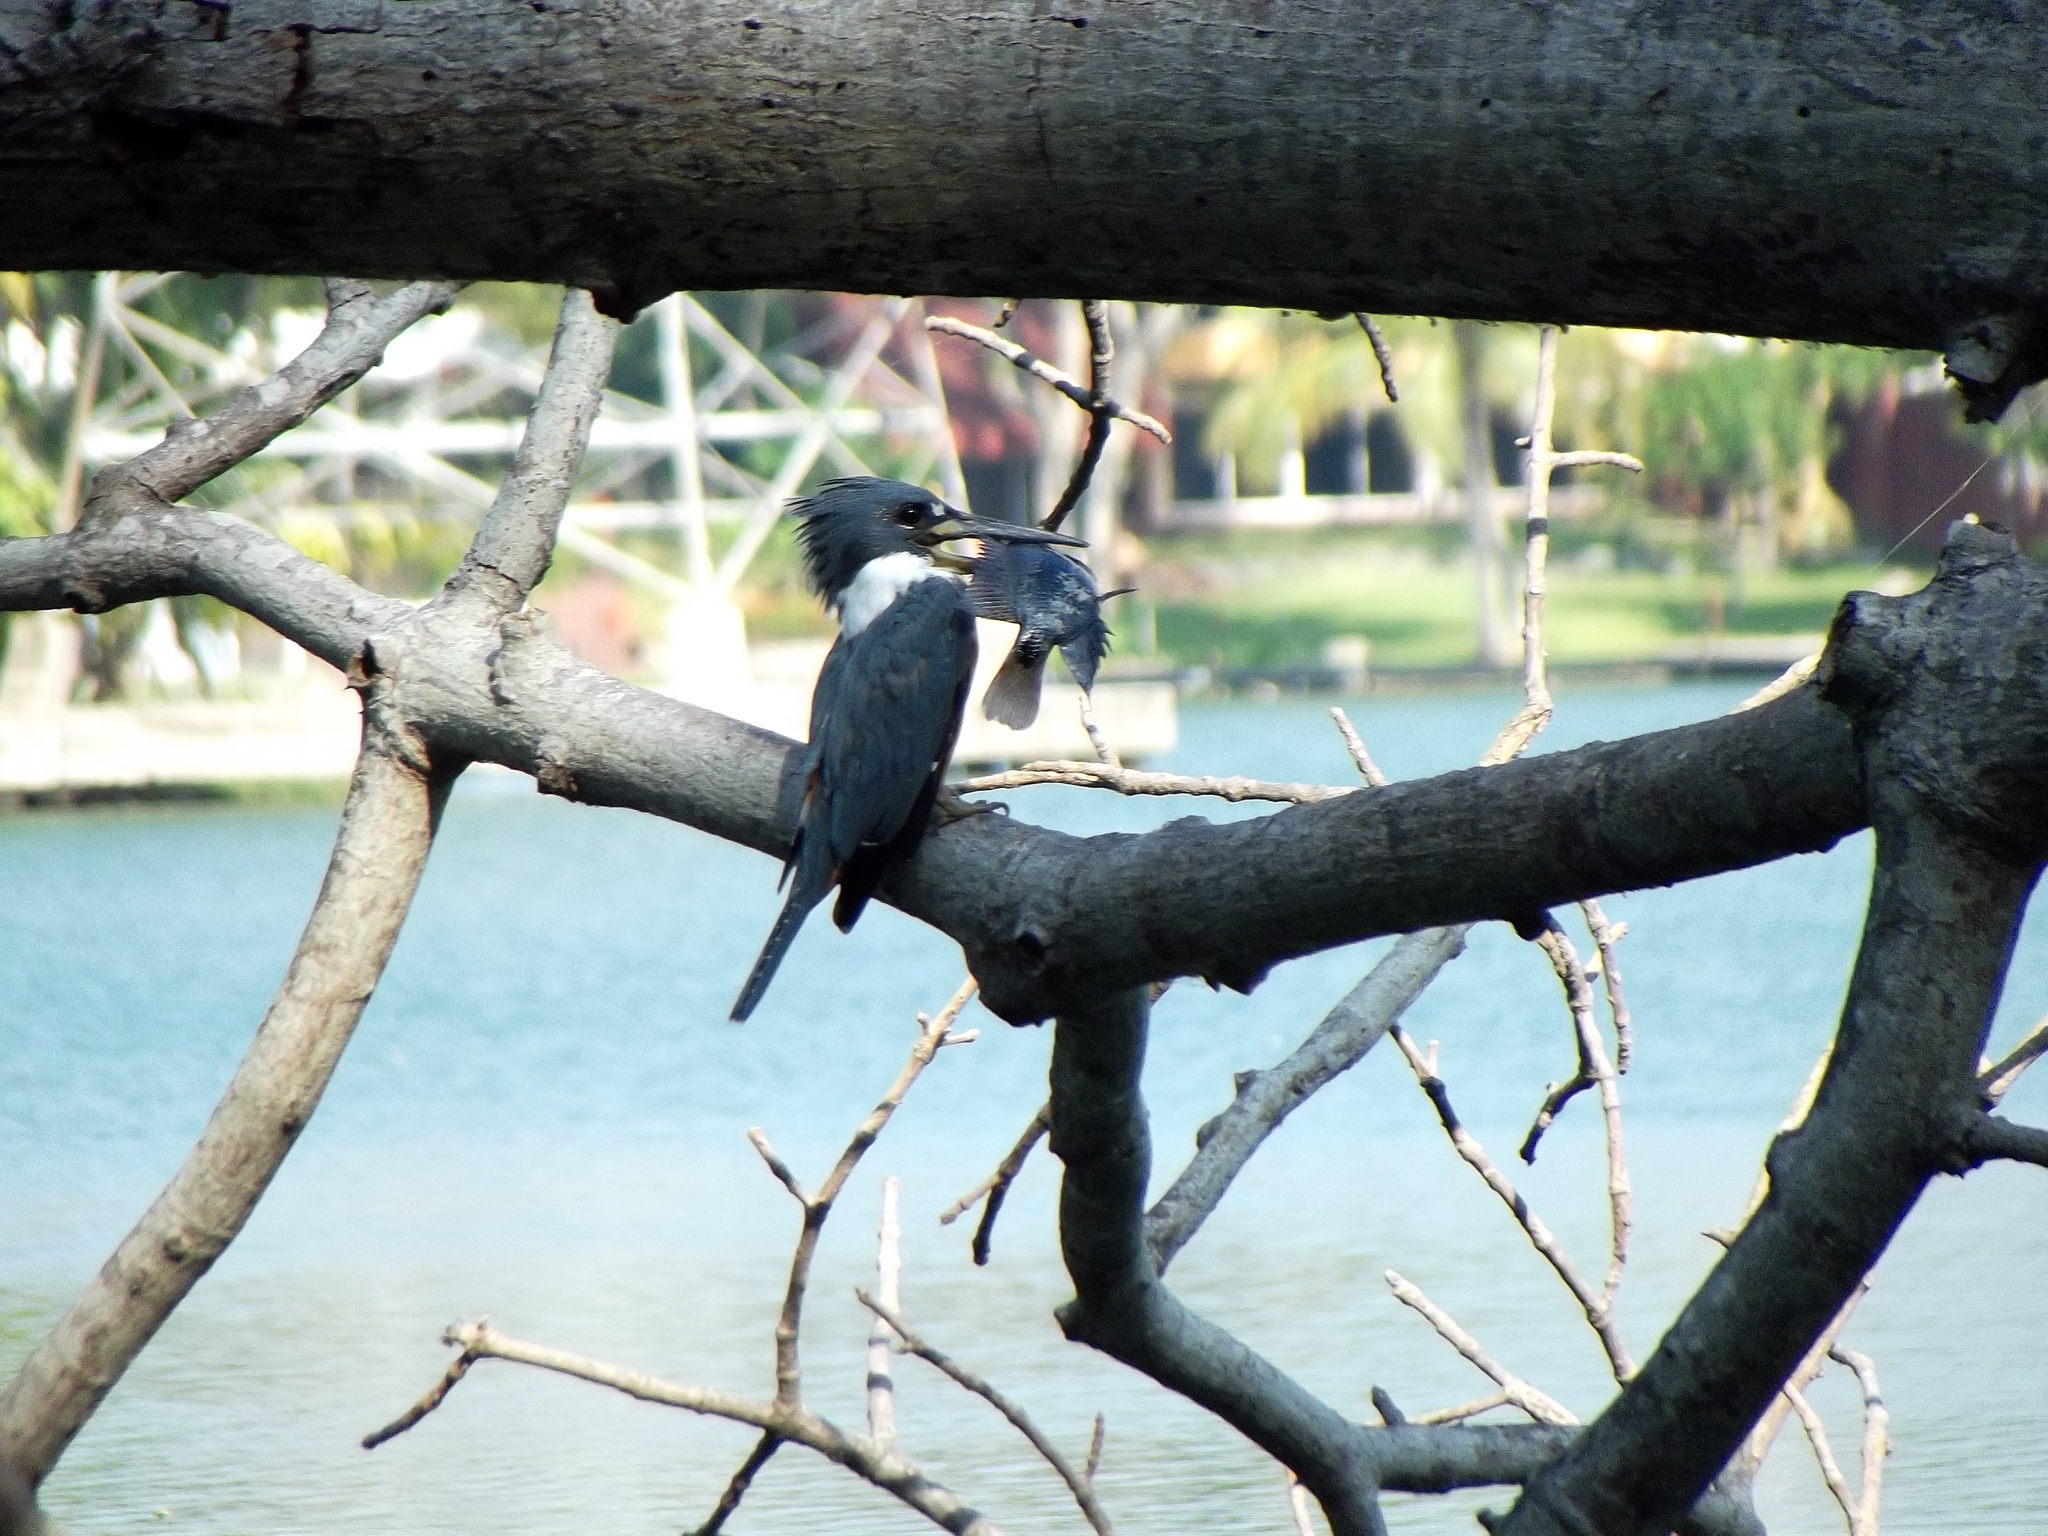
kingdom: Animalia
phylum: Chordata
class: Aves
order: Coraciiformes
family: Alcedinidae
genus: Megaceryle
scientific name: Megaceryle torquata
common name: Ringed kingfisher
